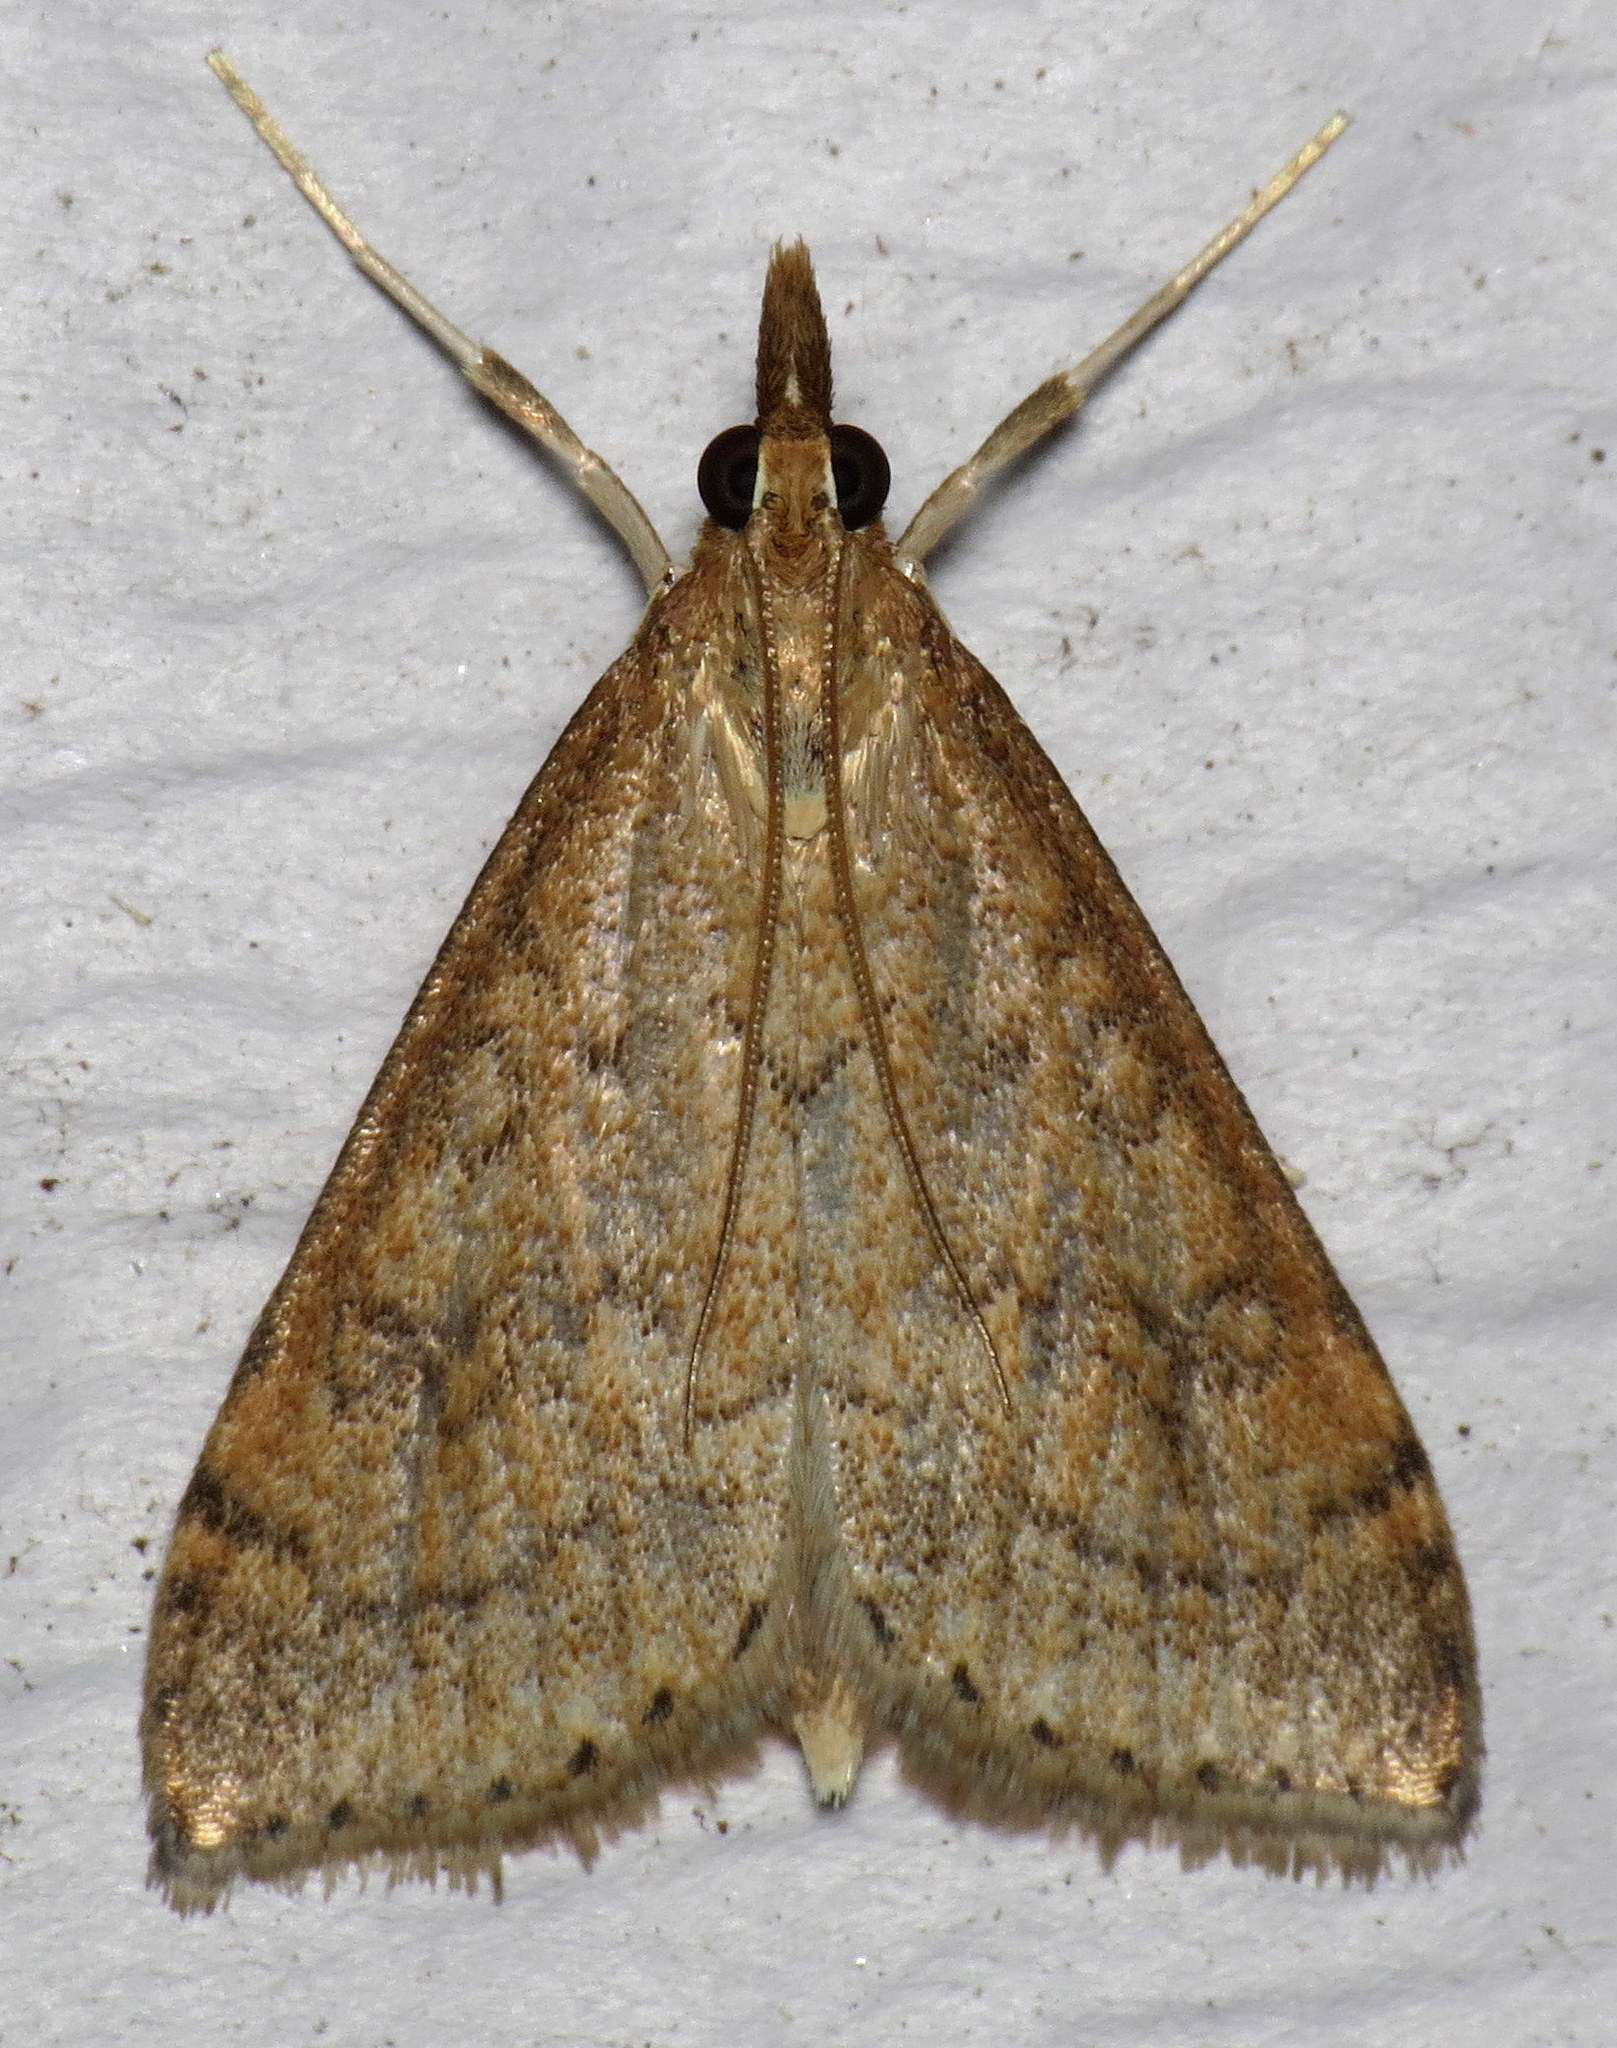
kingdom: Animalia
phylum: Arthropoda
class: Insecta
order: Lepidoptera
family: Crambidae
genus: Udea
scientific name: Udea rubigalis
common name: Celery leaftier moth
